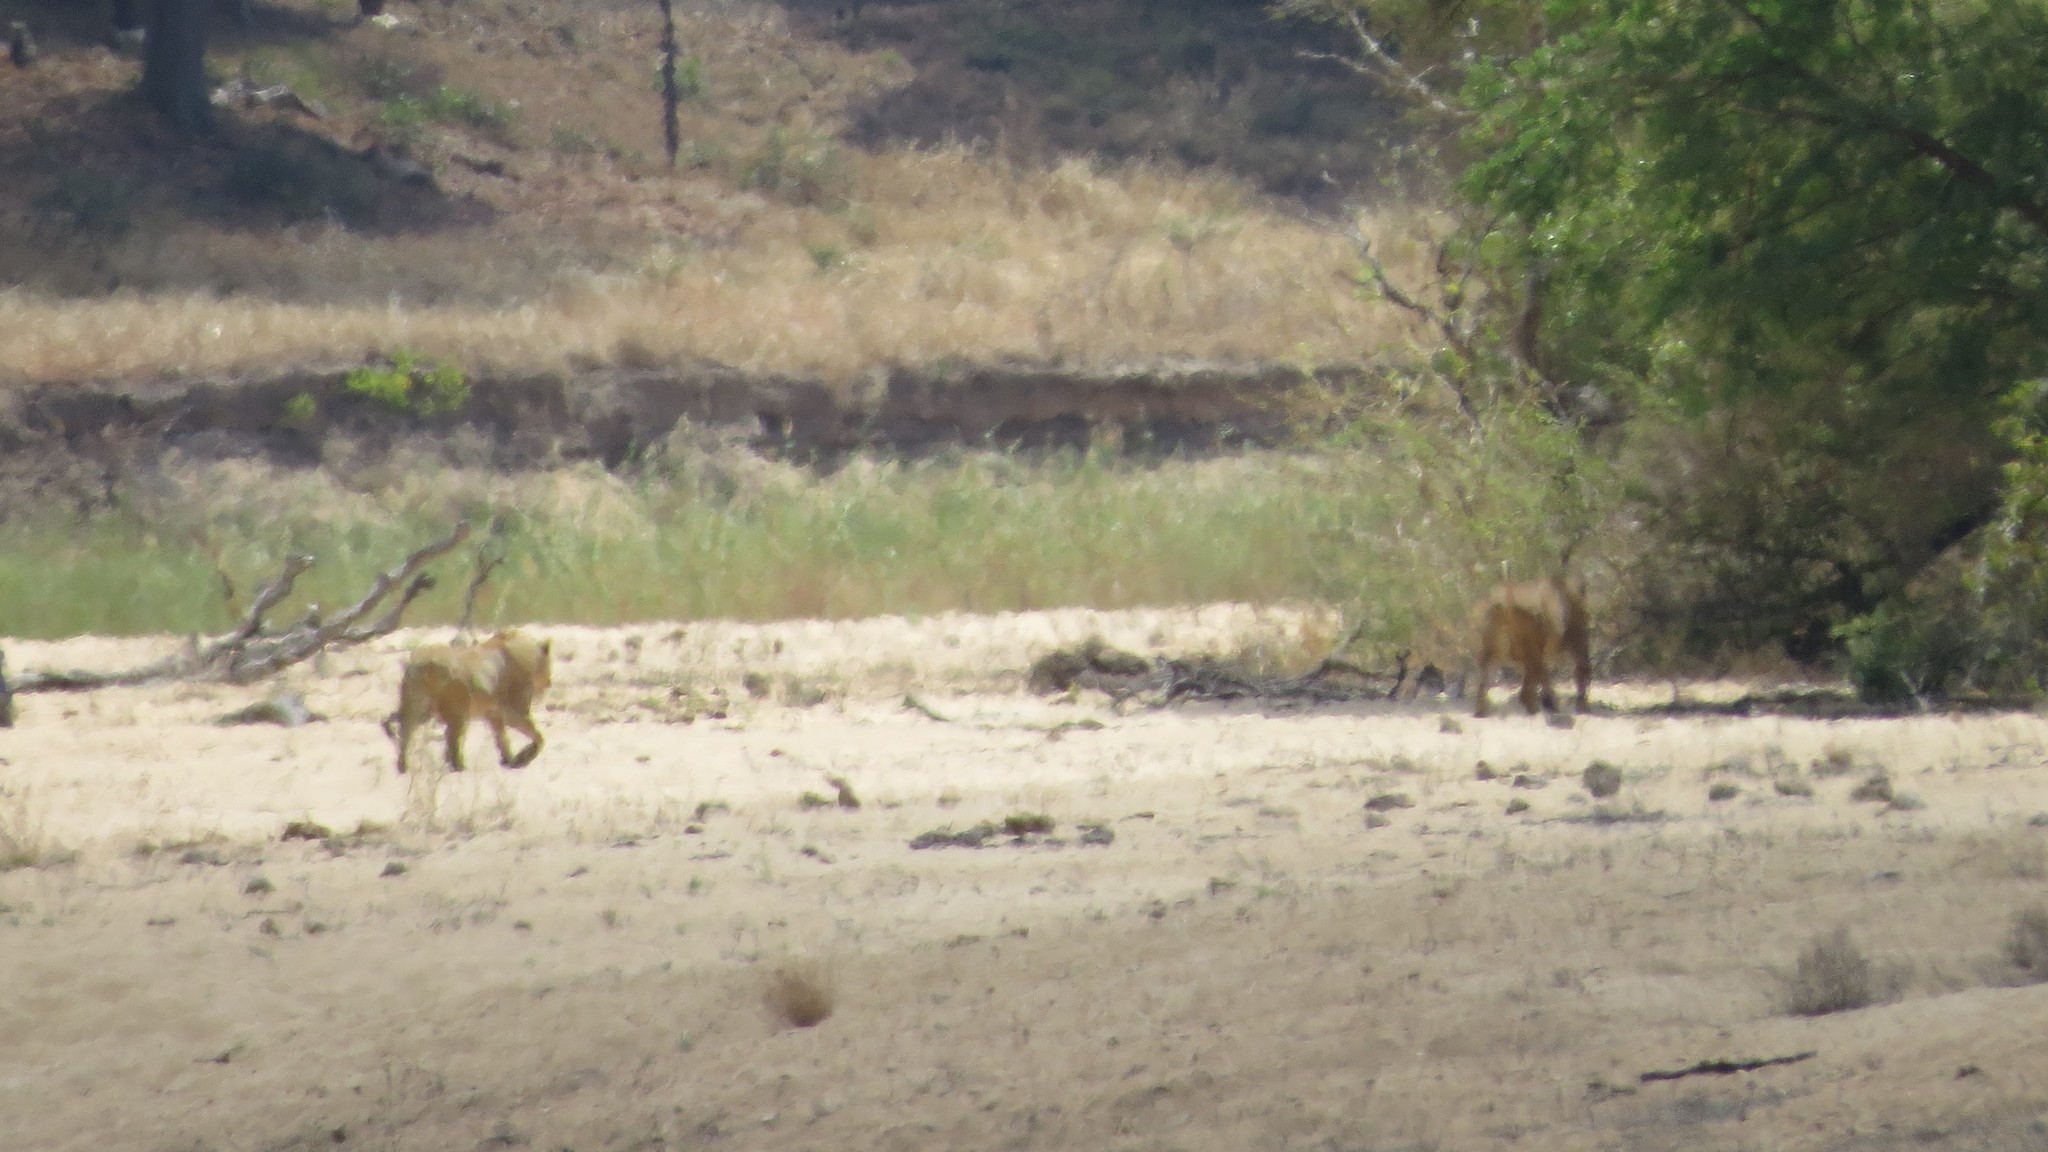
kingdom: Animalia
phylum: Chordata
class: Mammalia
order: Carnivora
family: Felidae
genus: Panthera
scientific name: Panthera leo
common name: Lion
